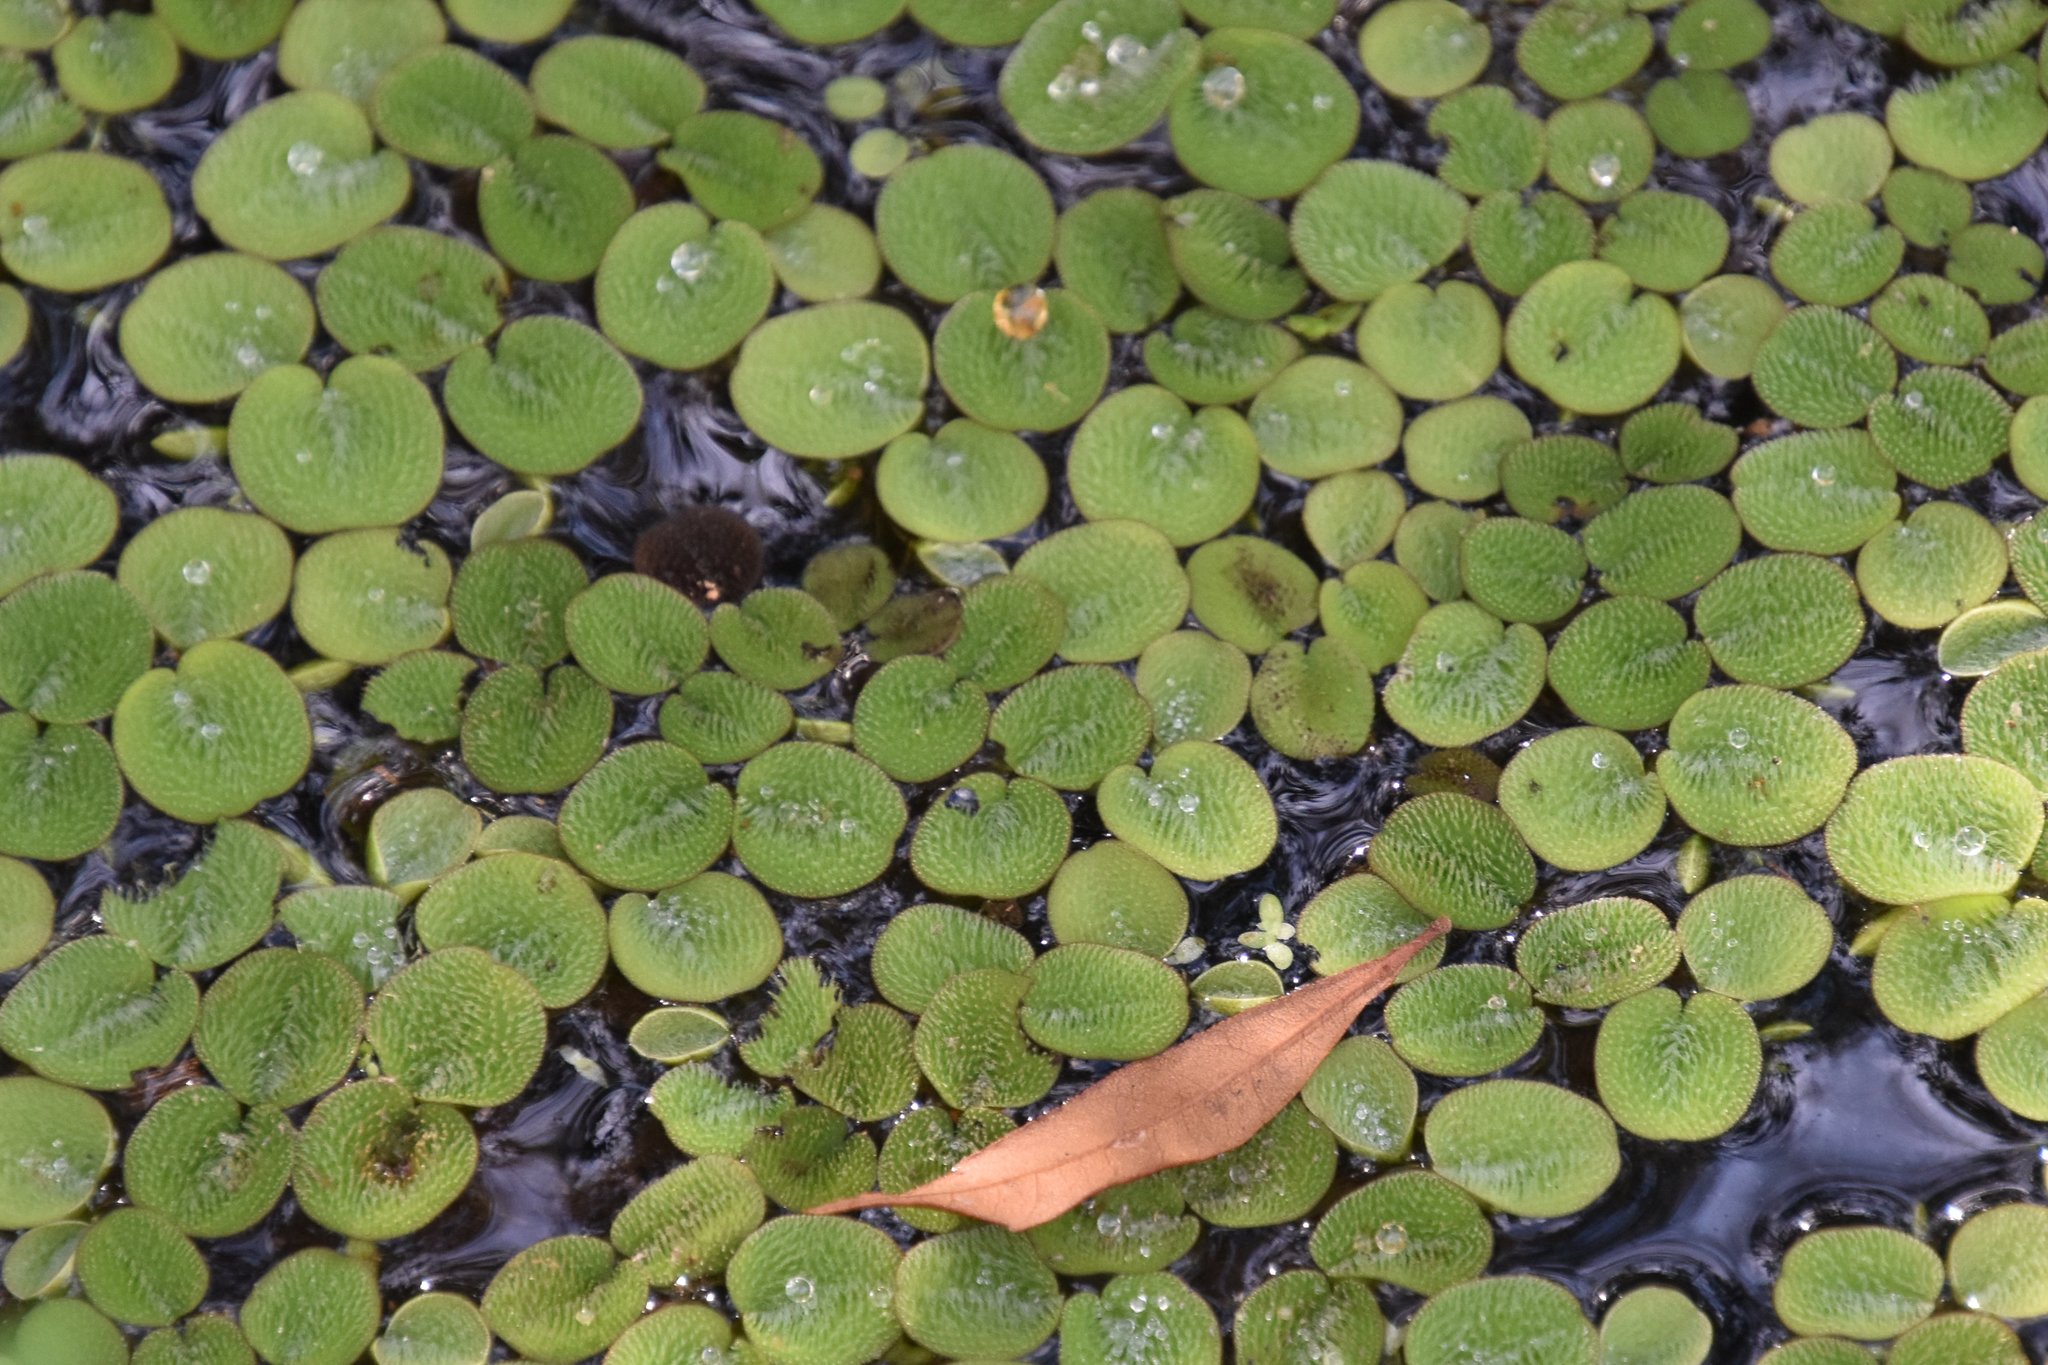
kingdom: Plantae
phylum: Tracheophyta
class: Polypodiopsida
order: Salviniales
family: Salviniaceae
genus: Salvinia
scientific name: Salvinia minima
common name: Water spangles
